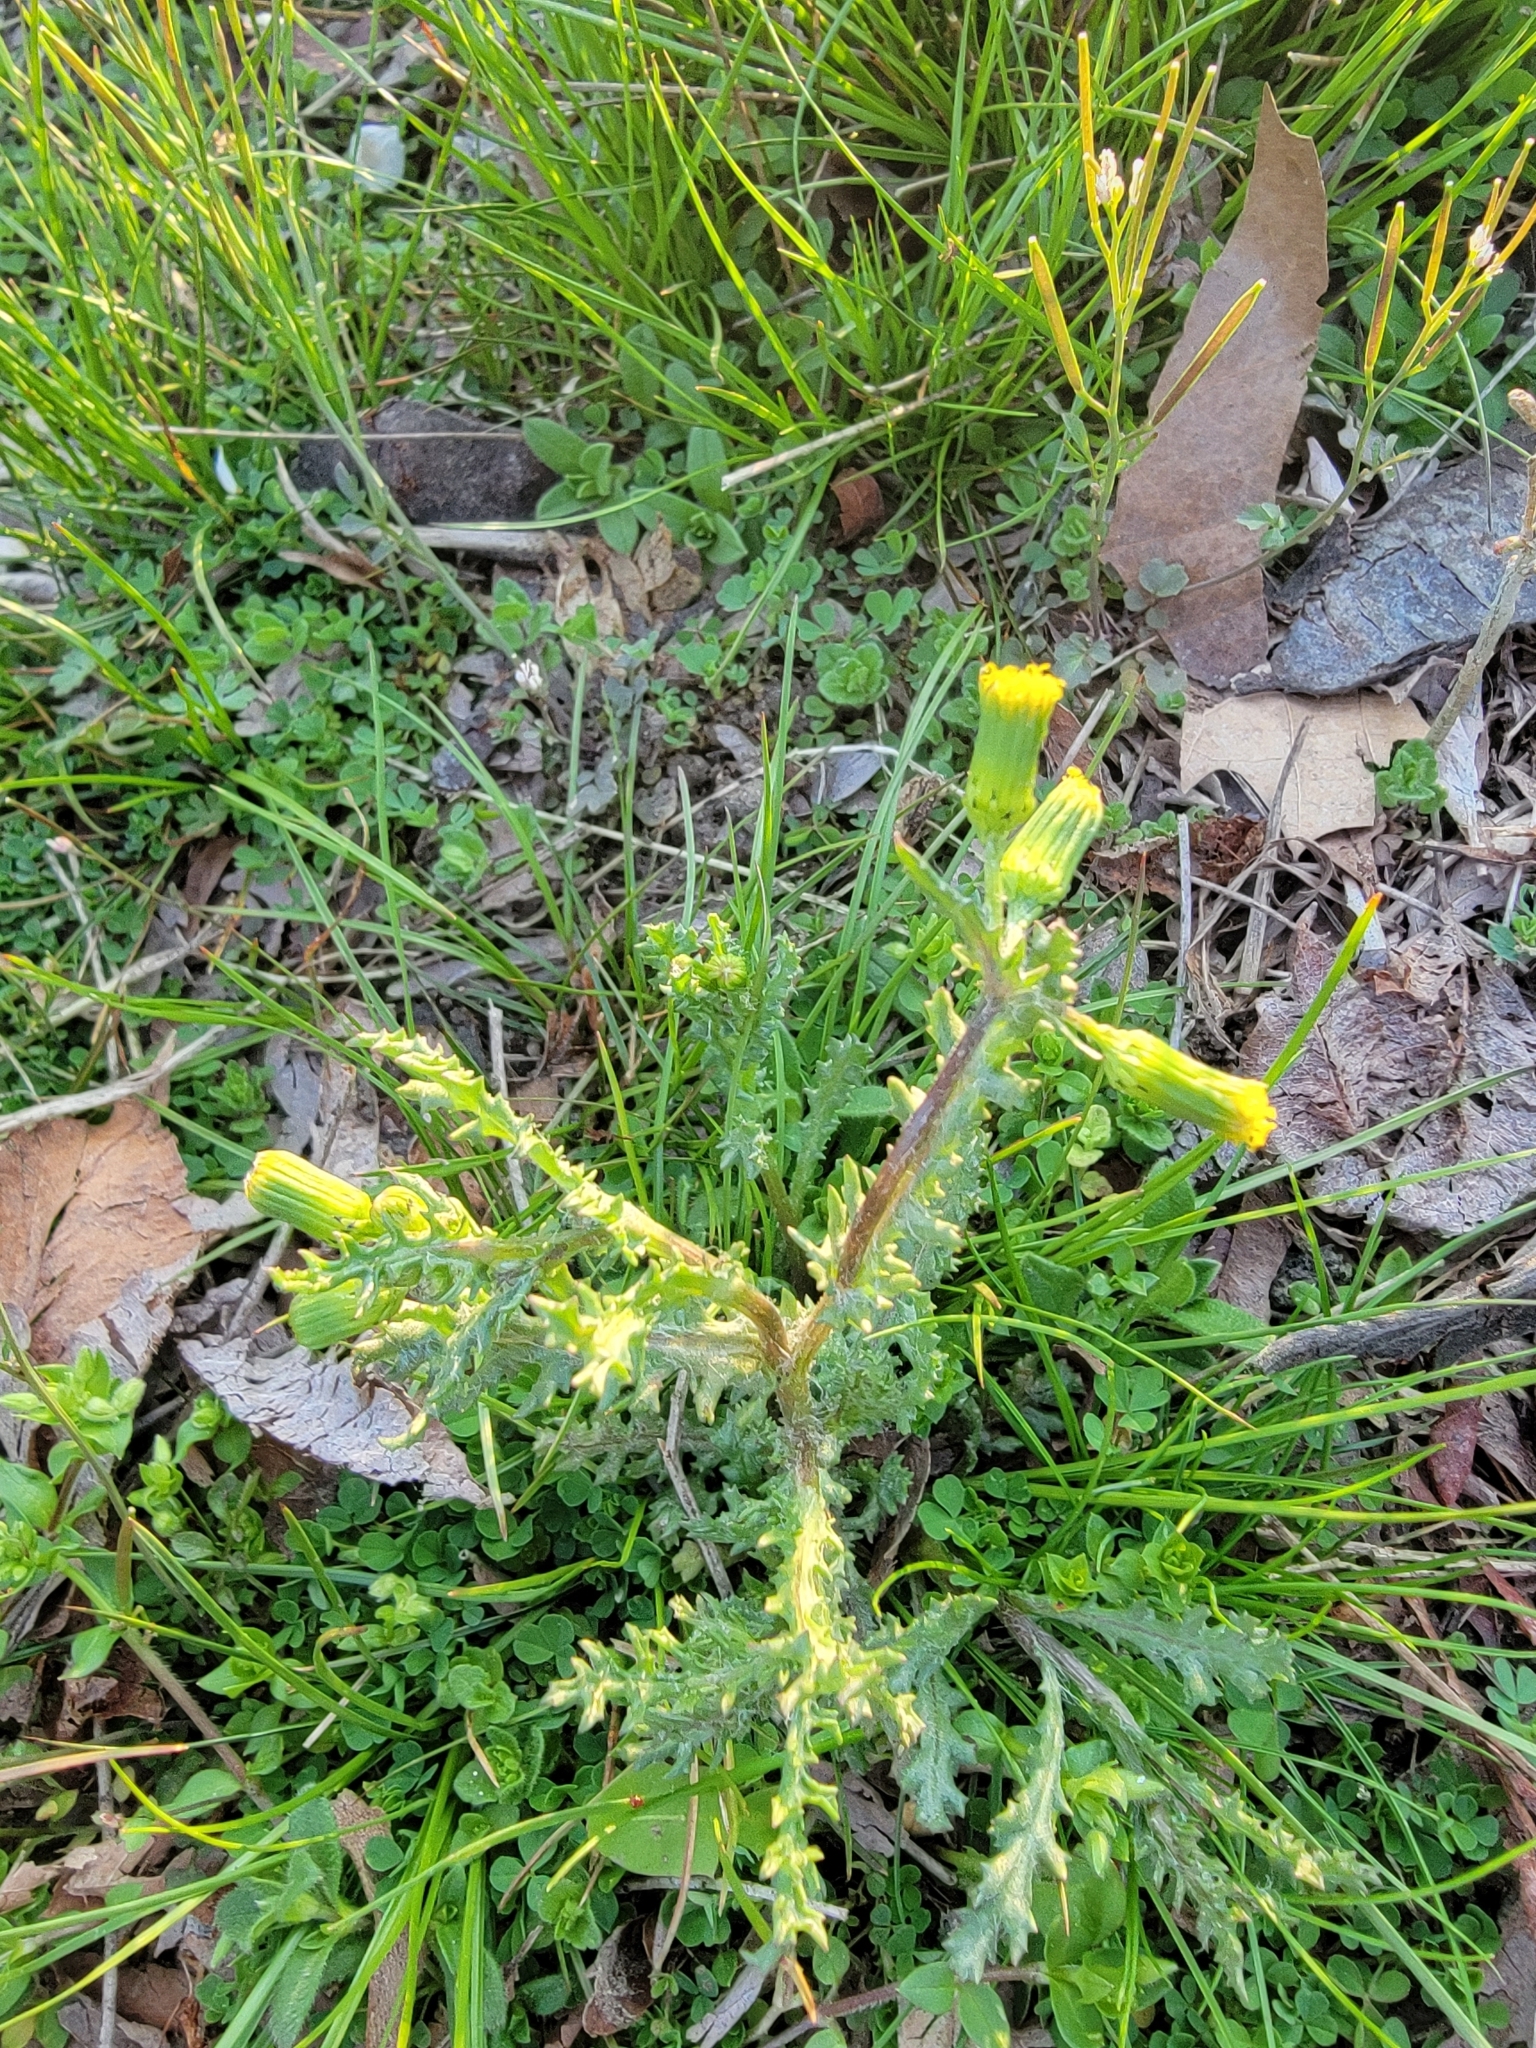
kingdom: Plantae
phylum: Tracheophyta
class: Magnoliopsida
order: Asterales
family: Asteraceae
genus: Senecio
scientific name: Senecio vulgaris
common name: Old-man-in-the-spring
